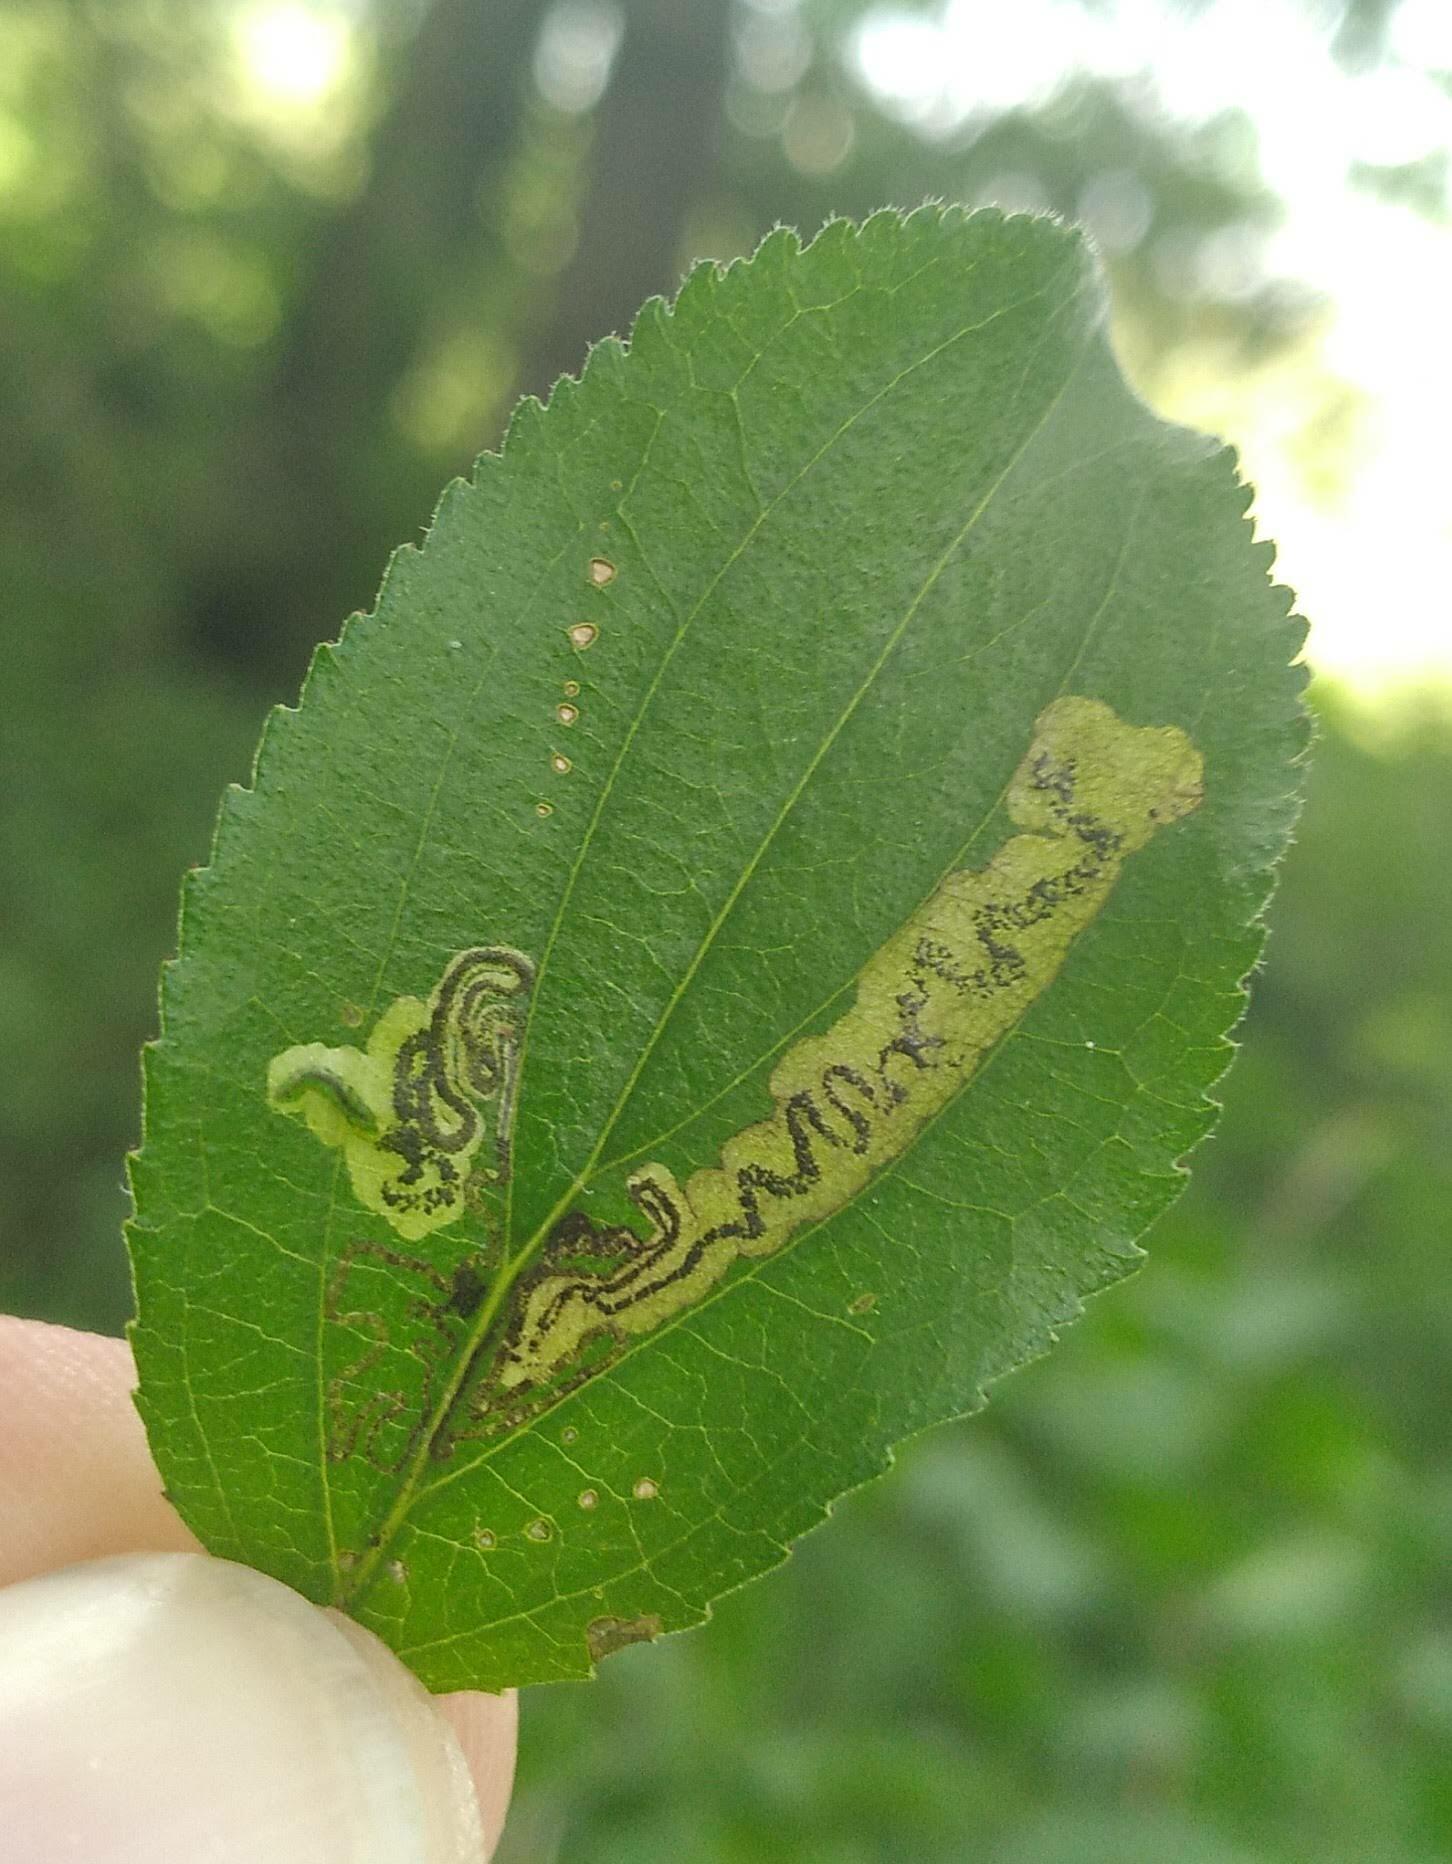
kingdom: Animalia
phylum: Arthropoda
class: Insecta
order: Lepidoptera
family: Nepticulidae
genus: Stigmella
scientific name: Stigmella rhamnicola
